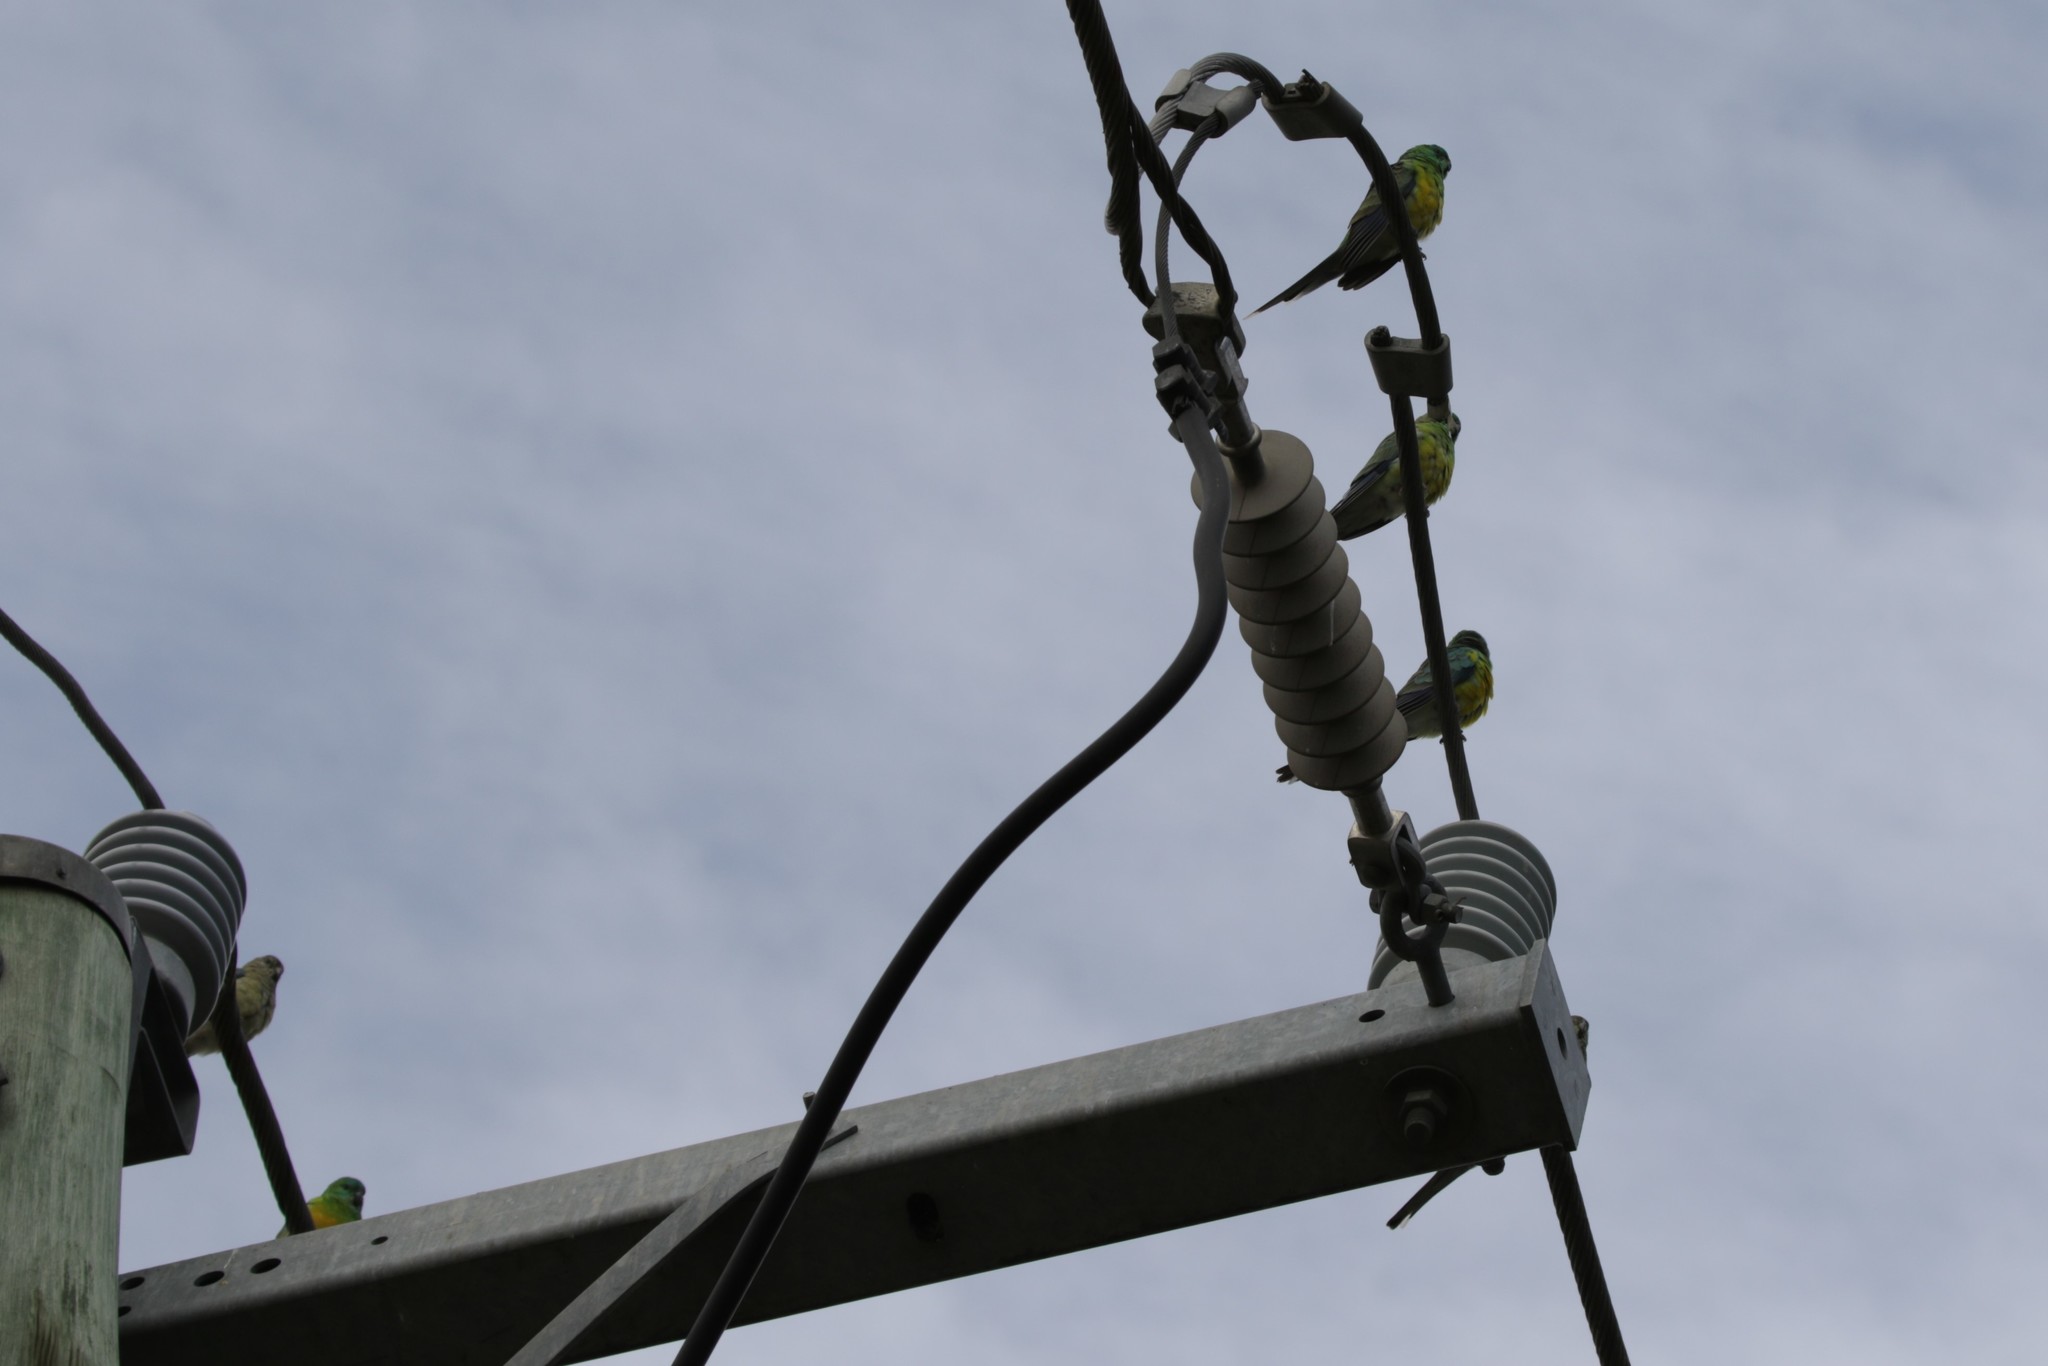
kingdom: Animalia
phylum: Chordata
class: Aves
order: Psittaciformes
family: Psittacidae
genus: Psephotus
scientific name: Psephotus haematonotus
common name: Red-rumped parrot
